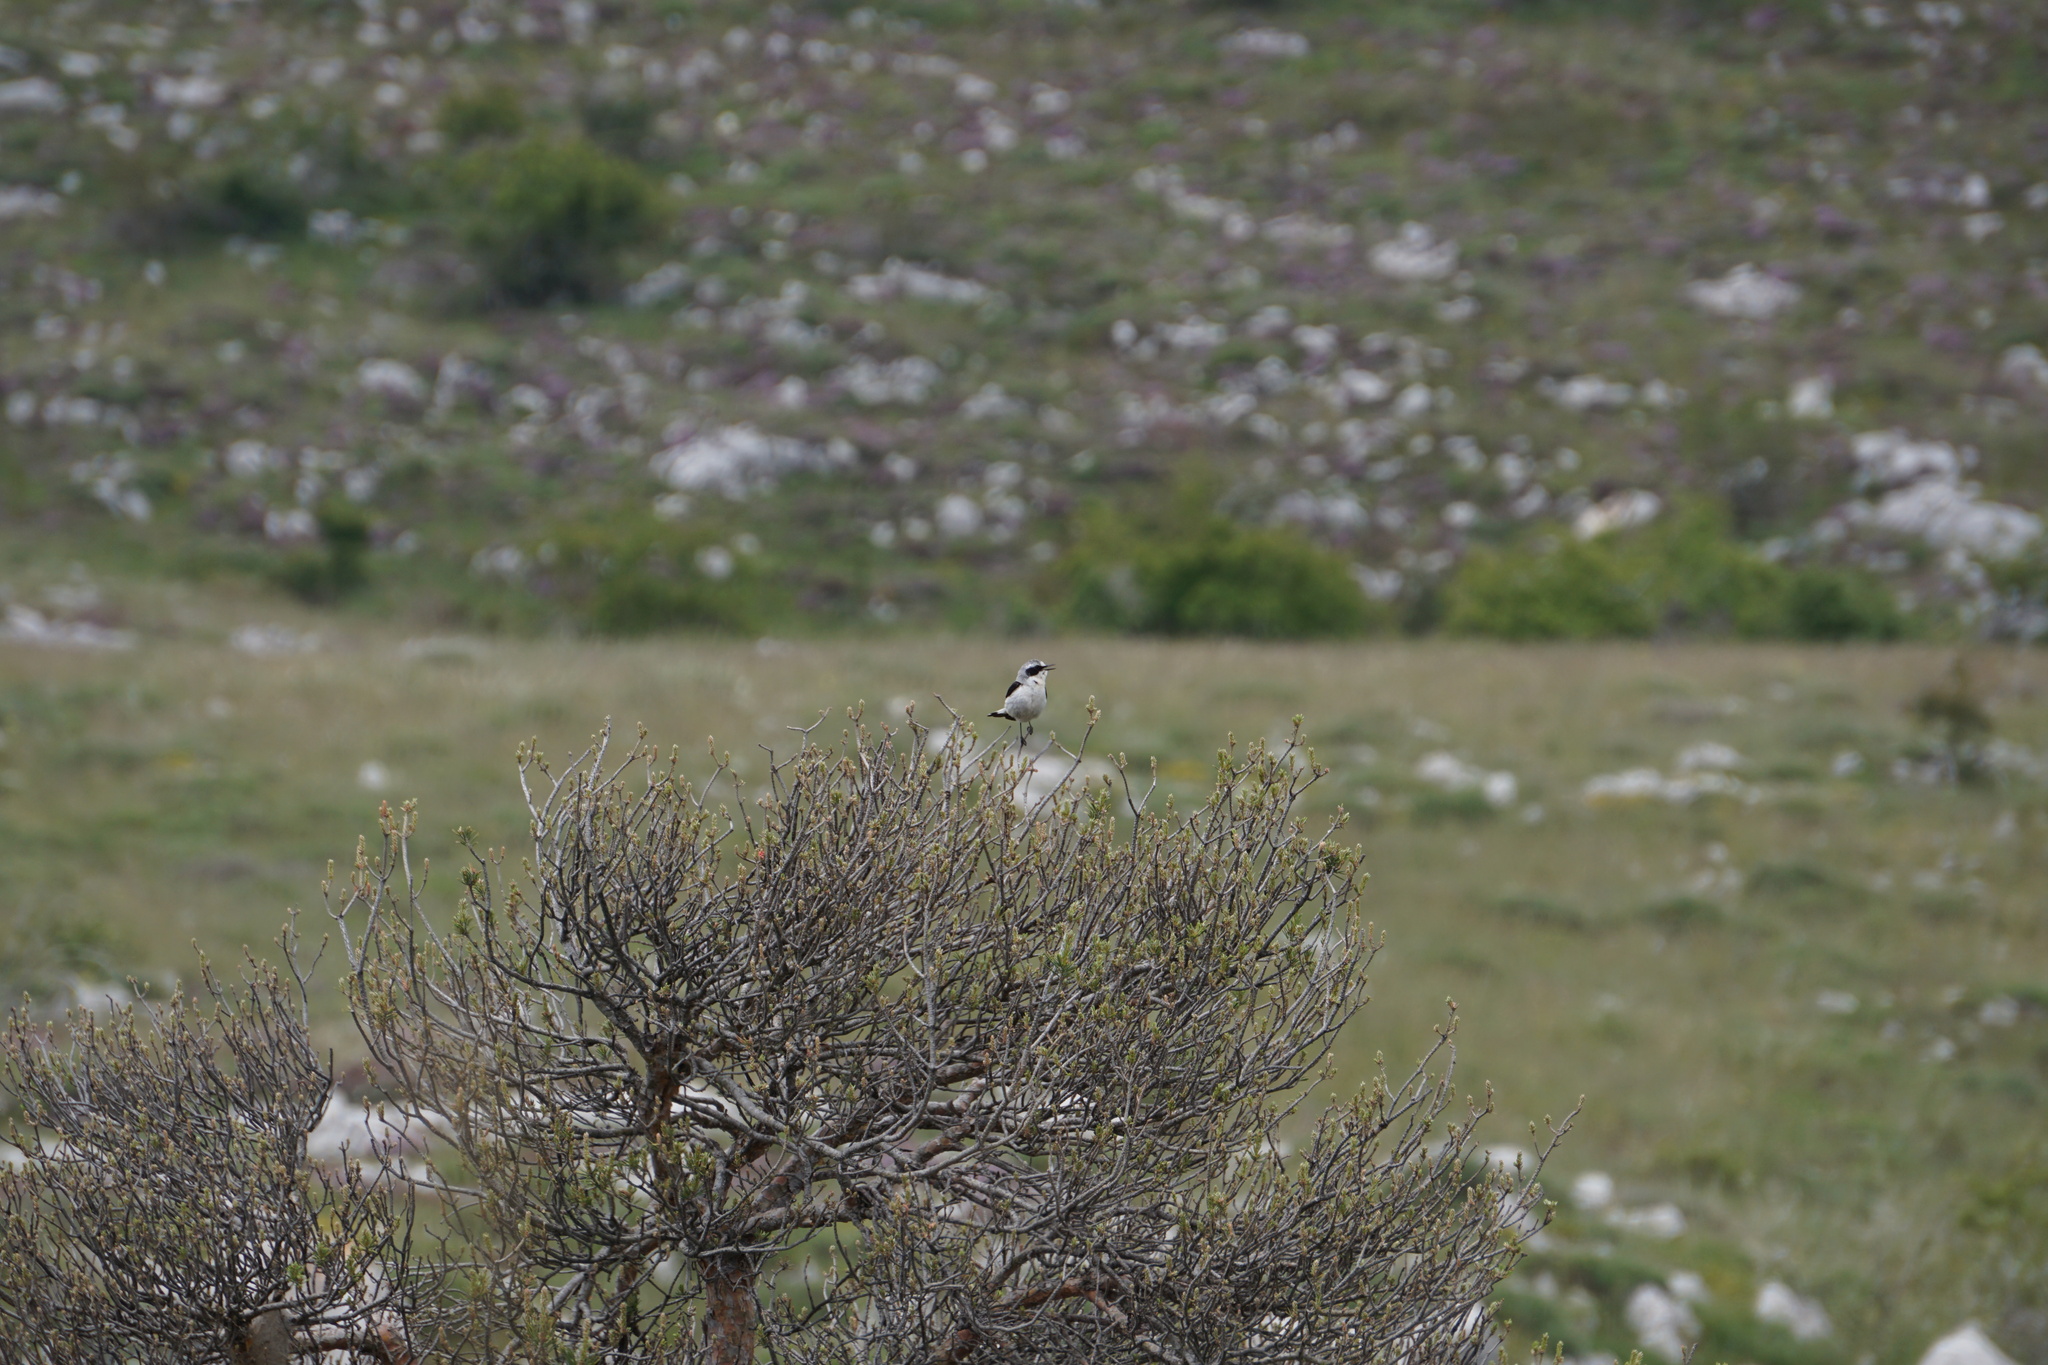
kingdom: Animalia
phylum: Chordata
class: Aves
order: Passeriformes
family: Muscicapidae
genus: Oenanthe
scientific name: Oenanthe oenanthe
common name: Northern wheatear
